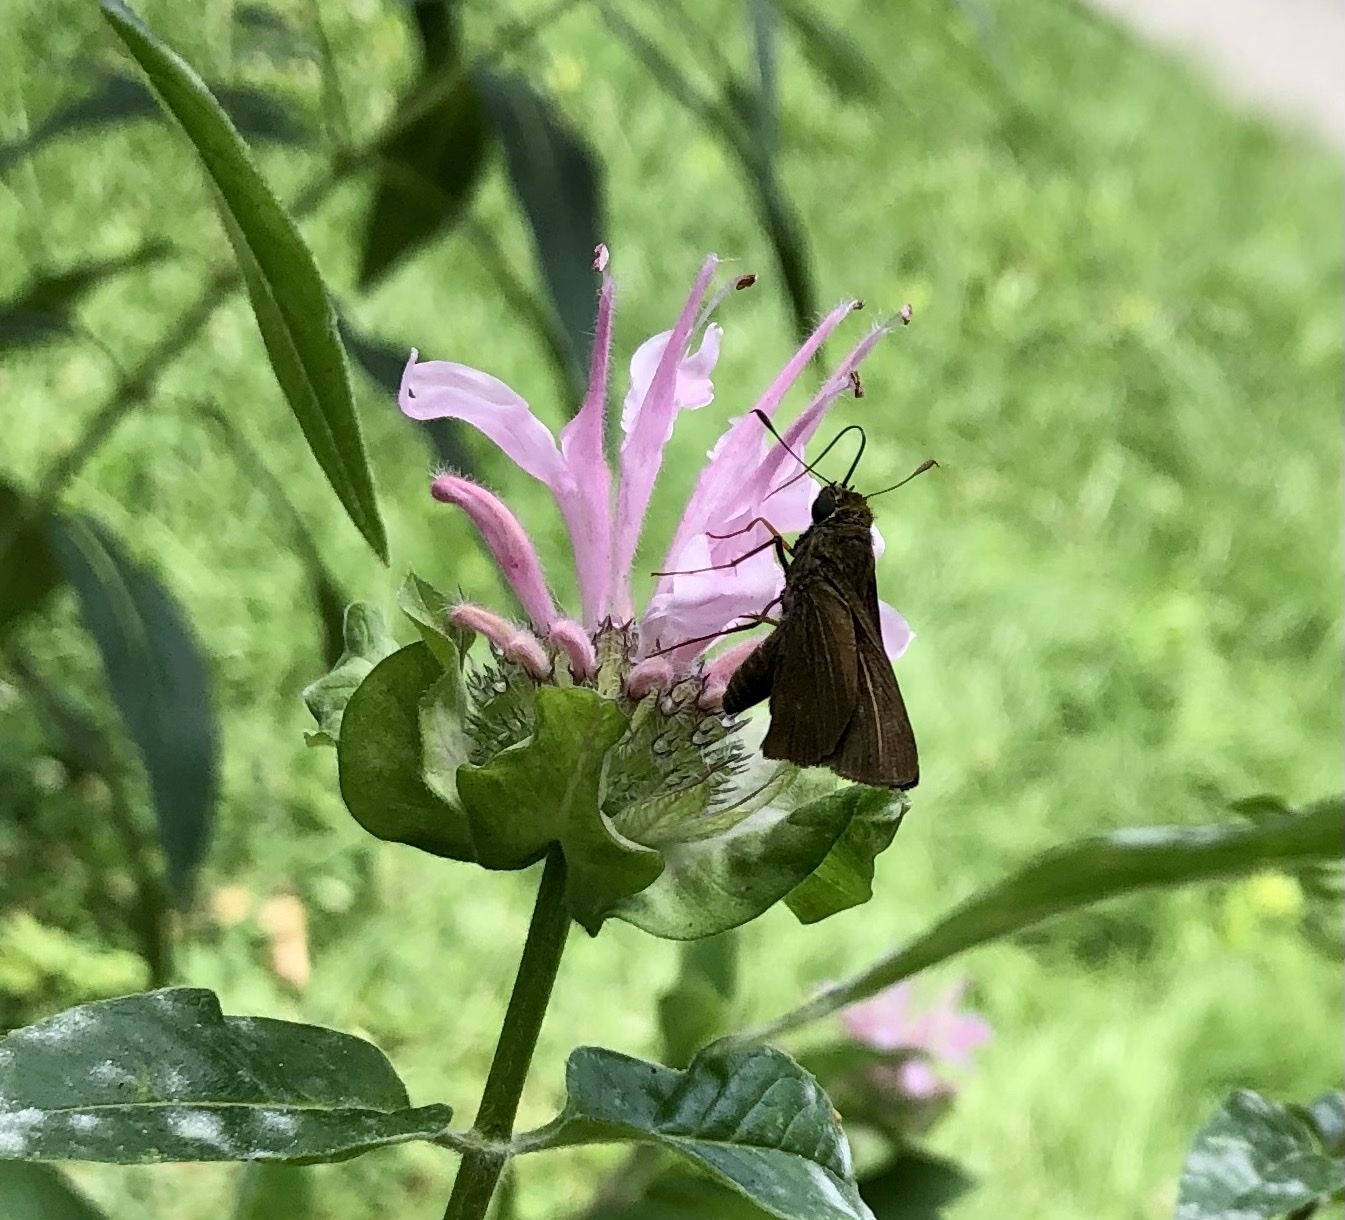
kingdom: Animalia
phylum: Arthropoda
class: Insecta
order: Lepidoptera
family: Hesperiidae
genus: Euphyes
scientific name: Euphyes vestris
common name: Dun skipper
